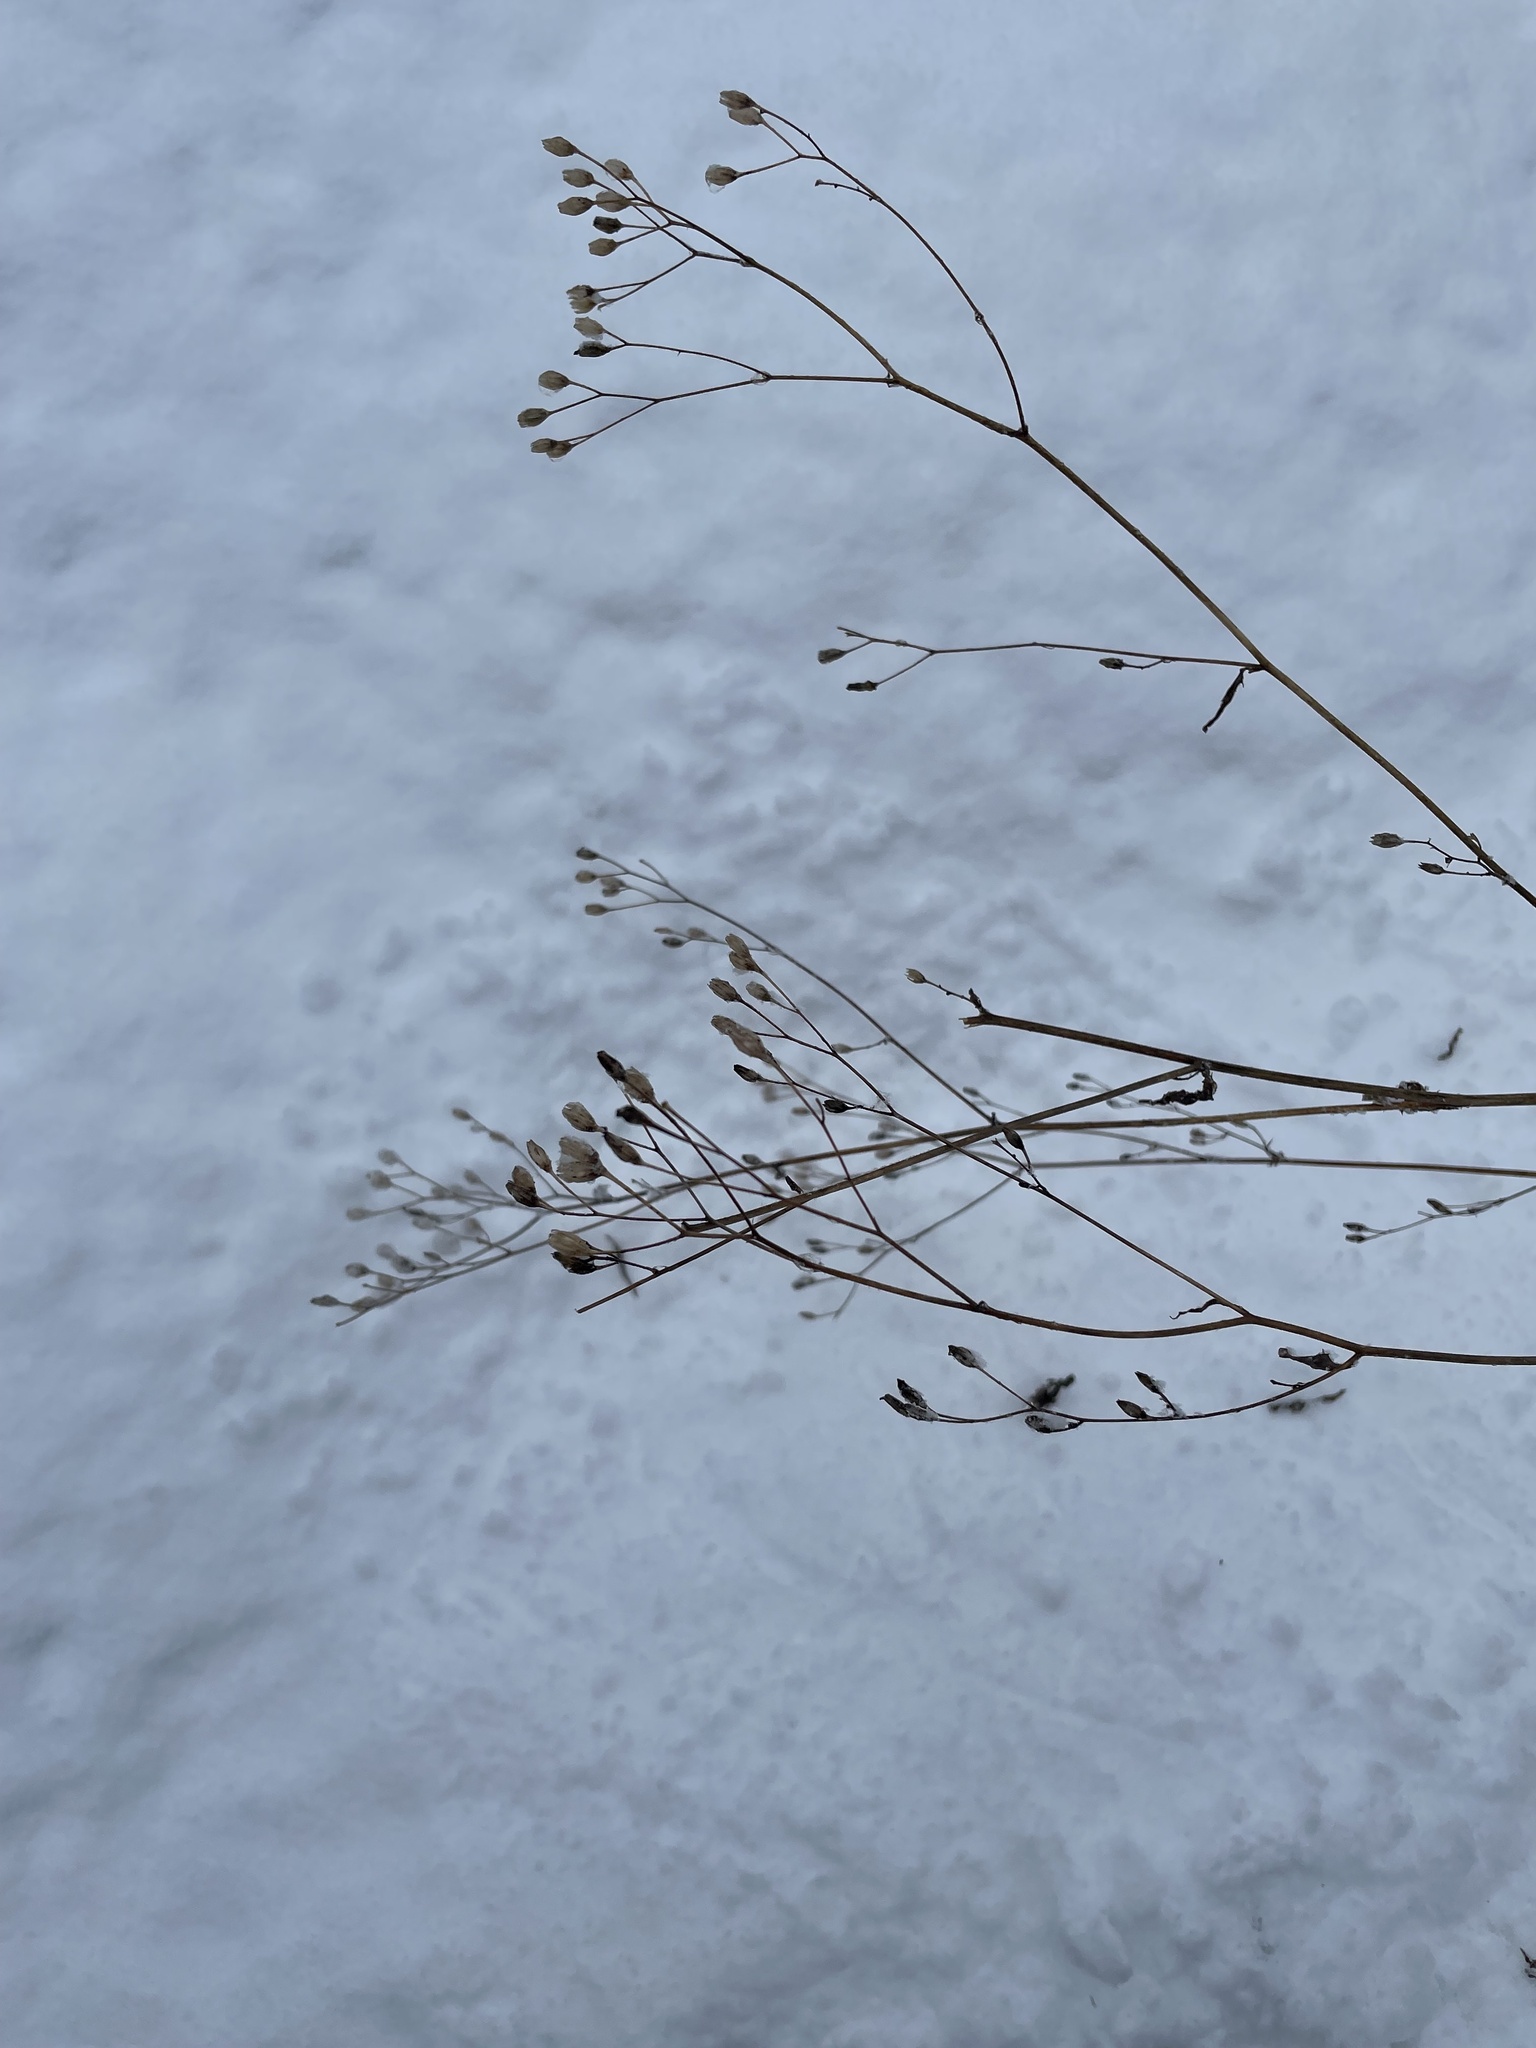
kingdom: Plantae
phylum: Tracheophyta
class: Magnoliopsida
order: Asterales
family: Asteraceae
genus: Lapsana
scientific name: Lapsana communis
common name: Nipplewort
